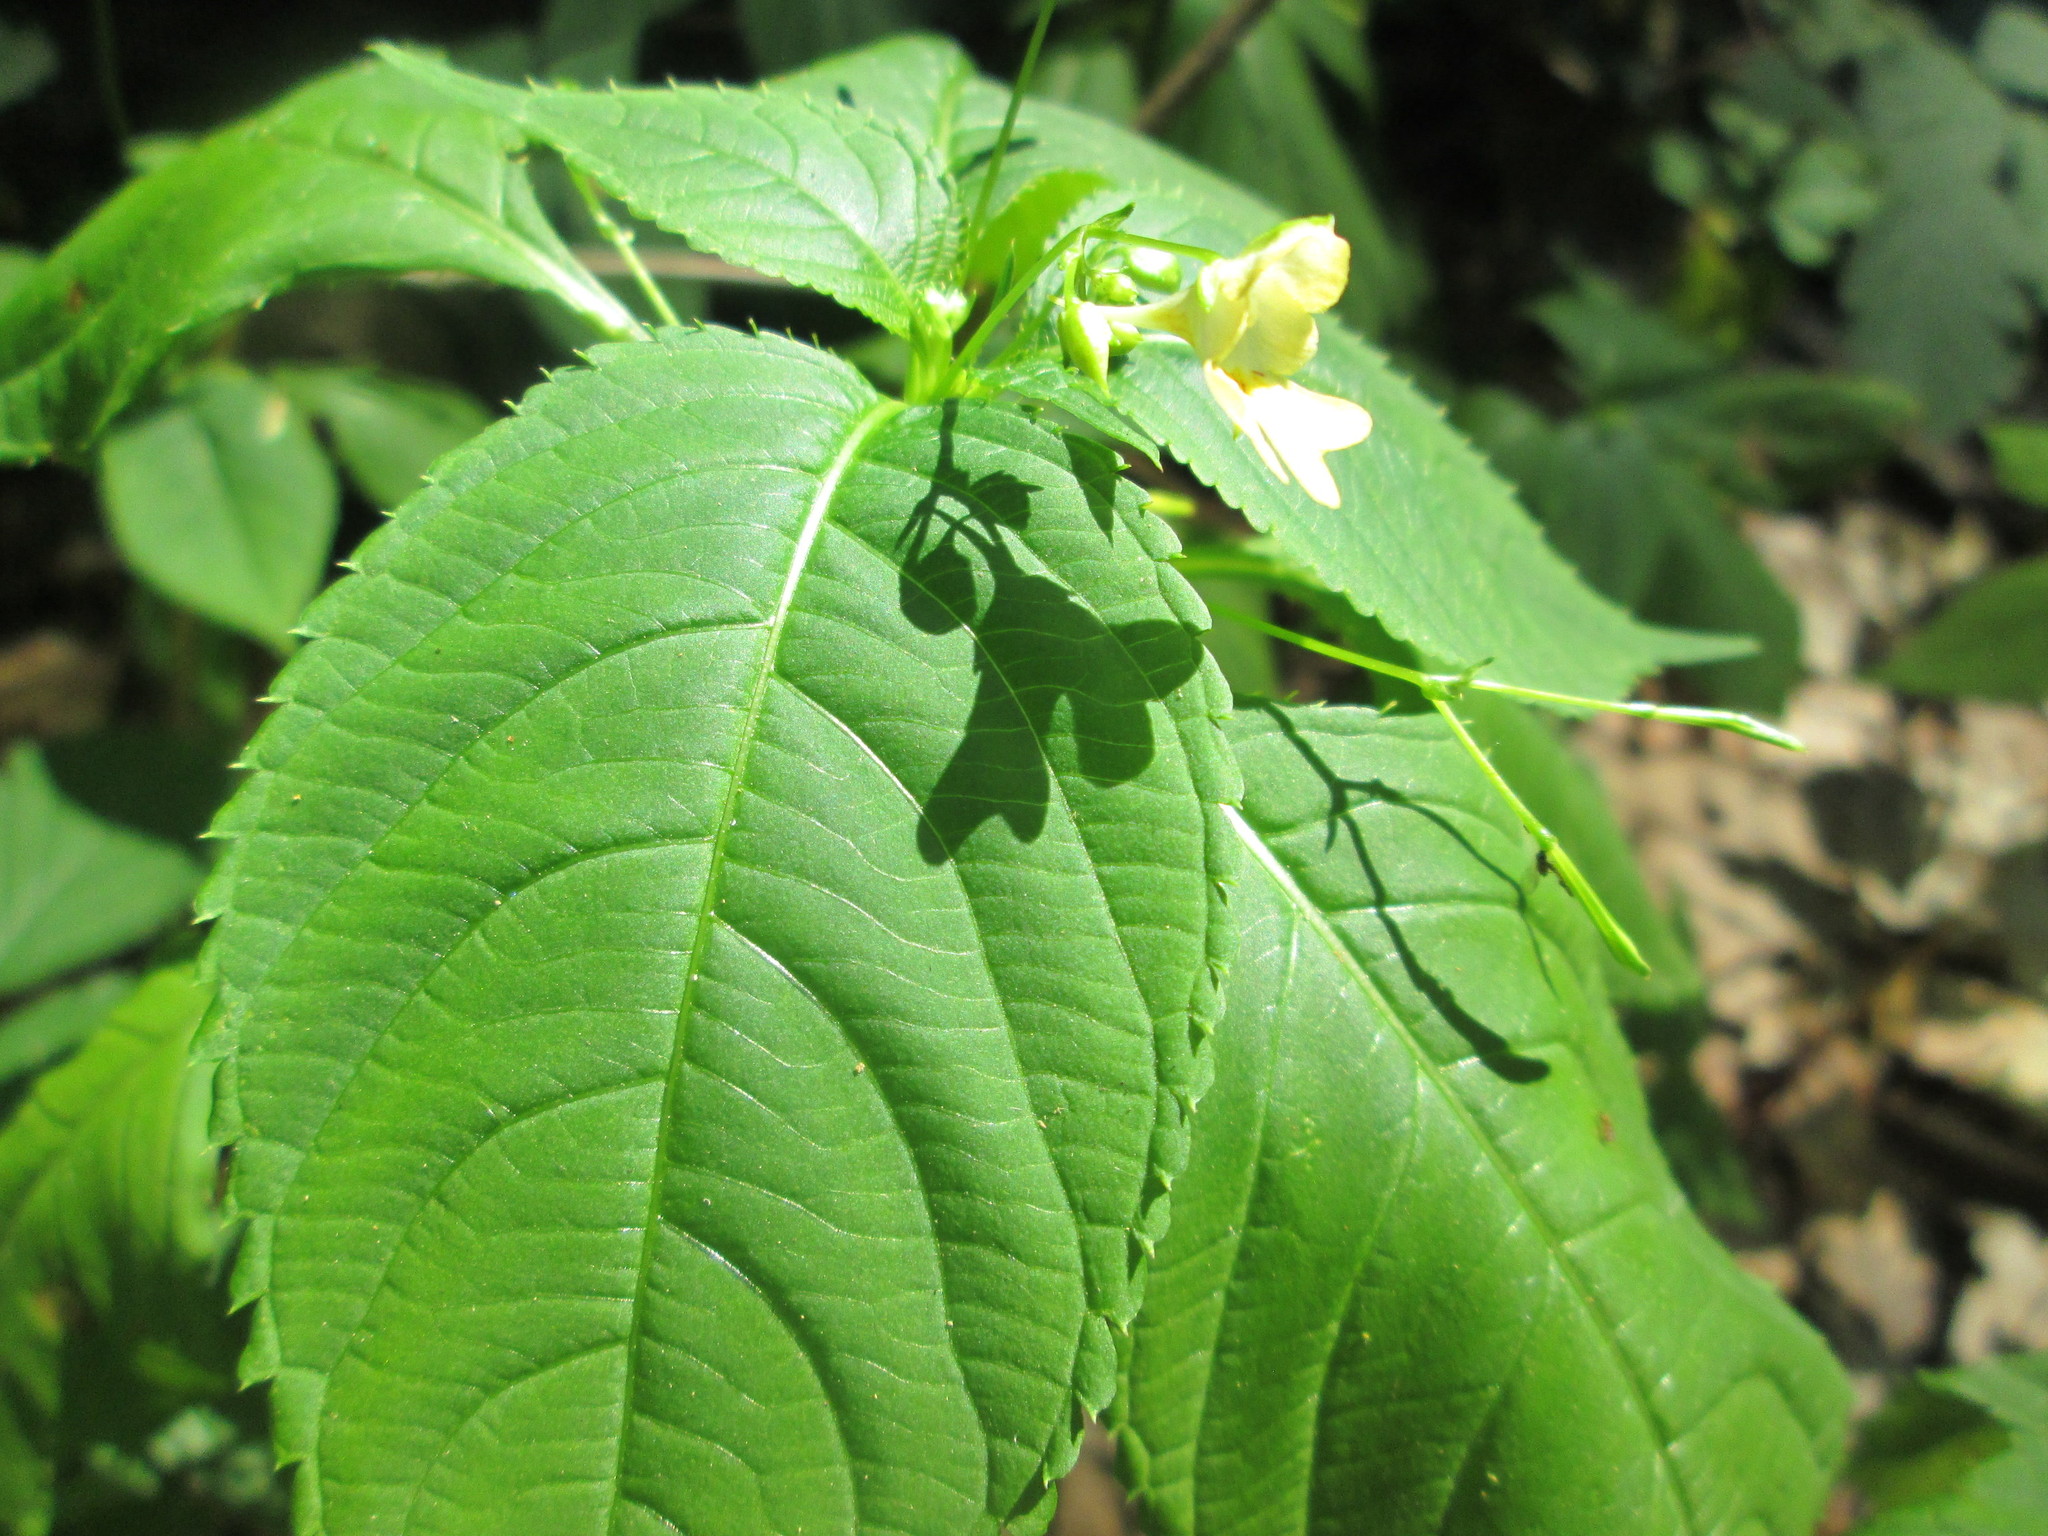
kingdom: Plantae
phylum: Tracheophyta
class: Magnoliopsida
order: Ericales
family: Balsaminaceae
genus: Impatiens
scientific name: Impatiens parviflora
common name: Small balsam
